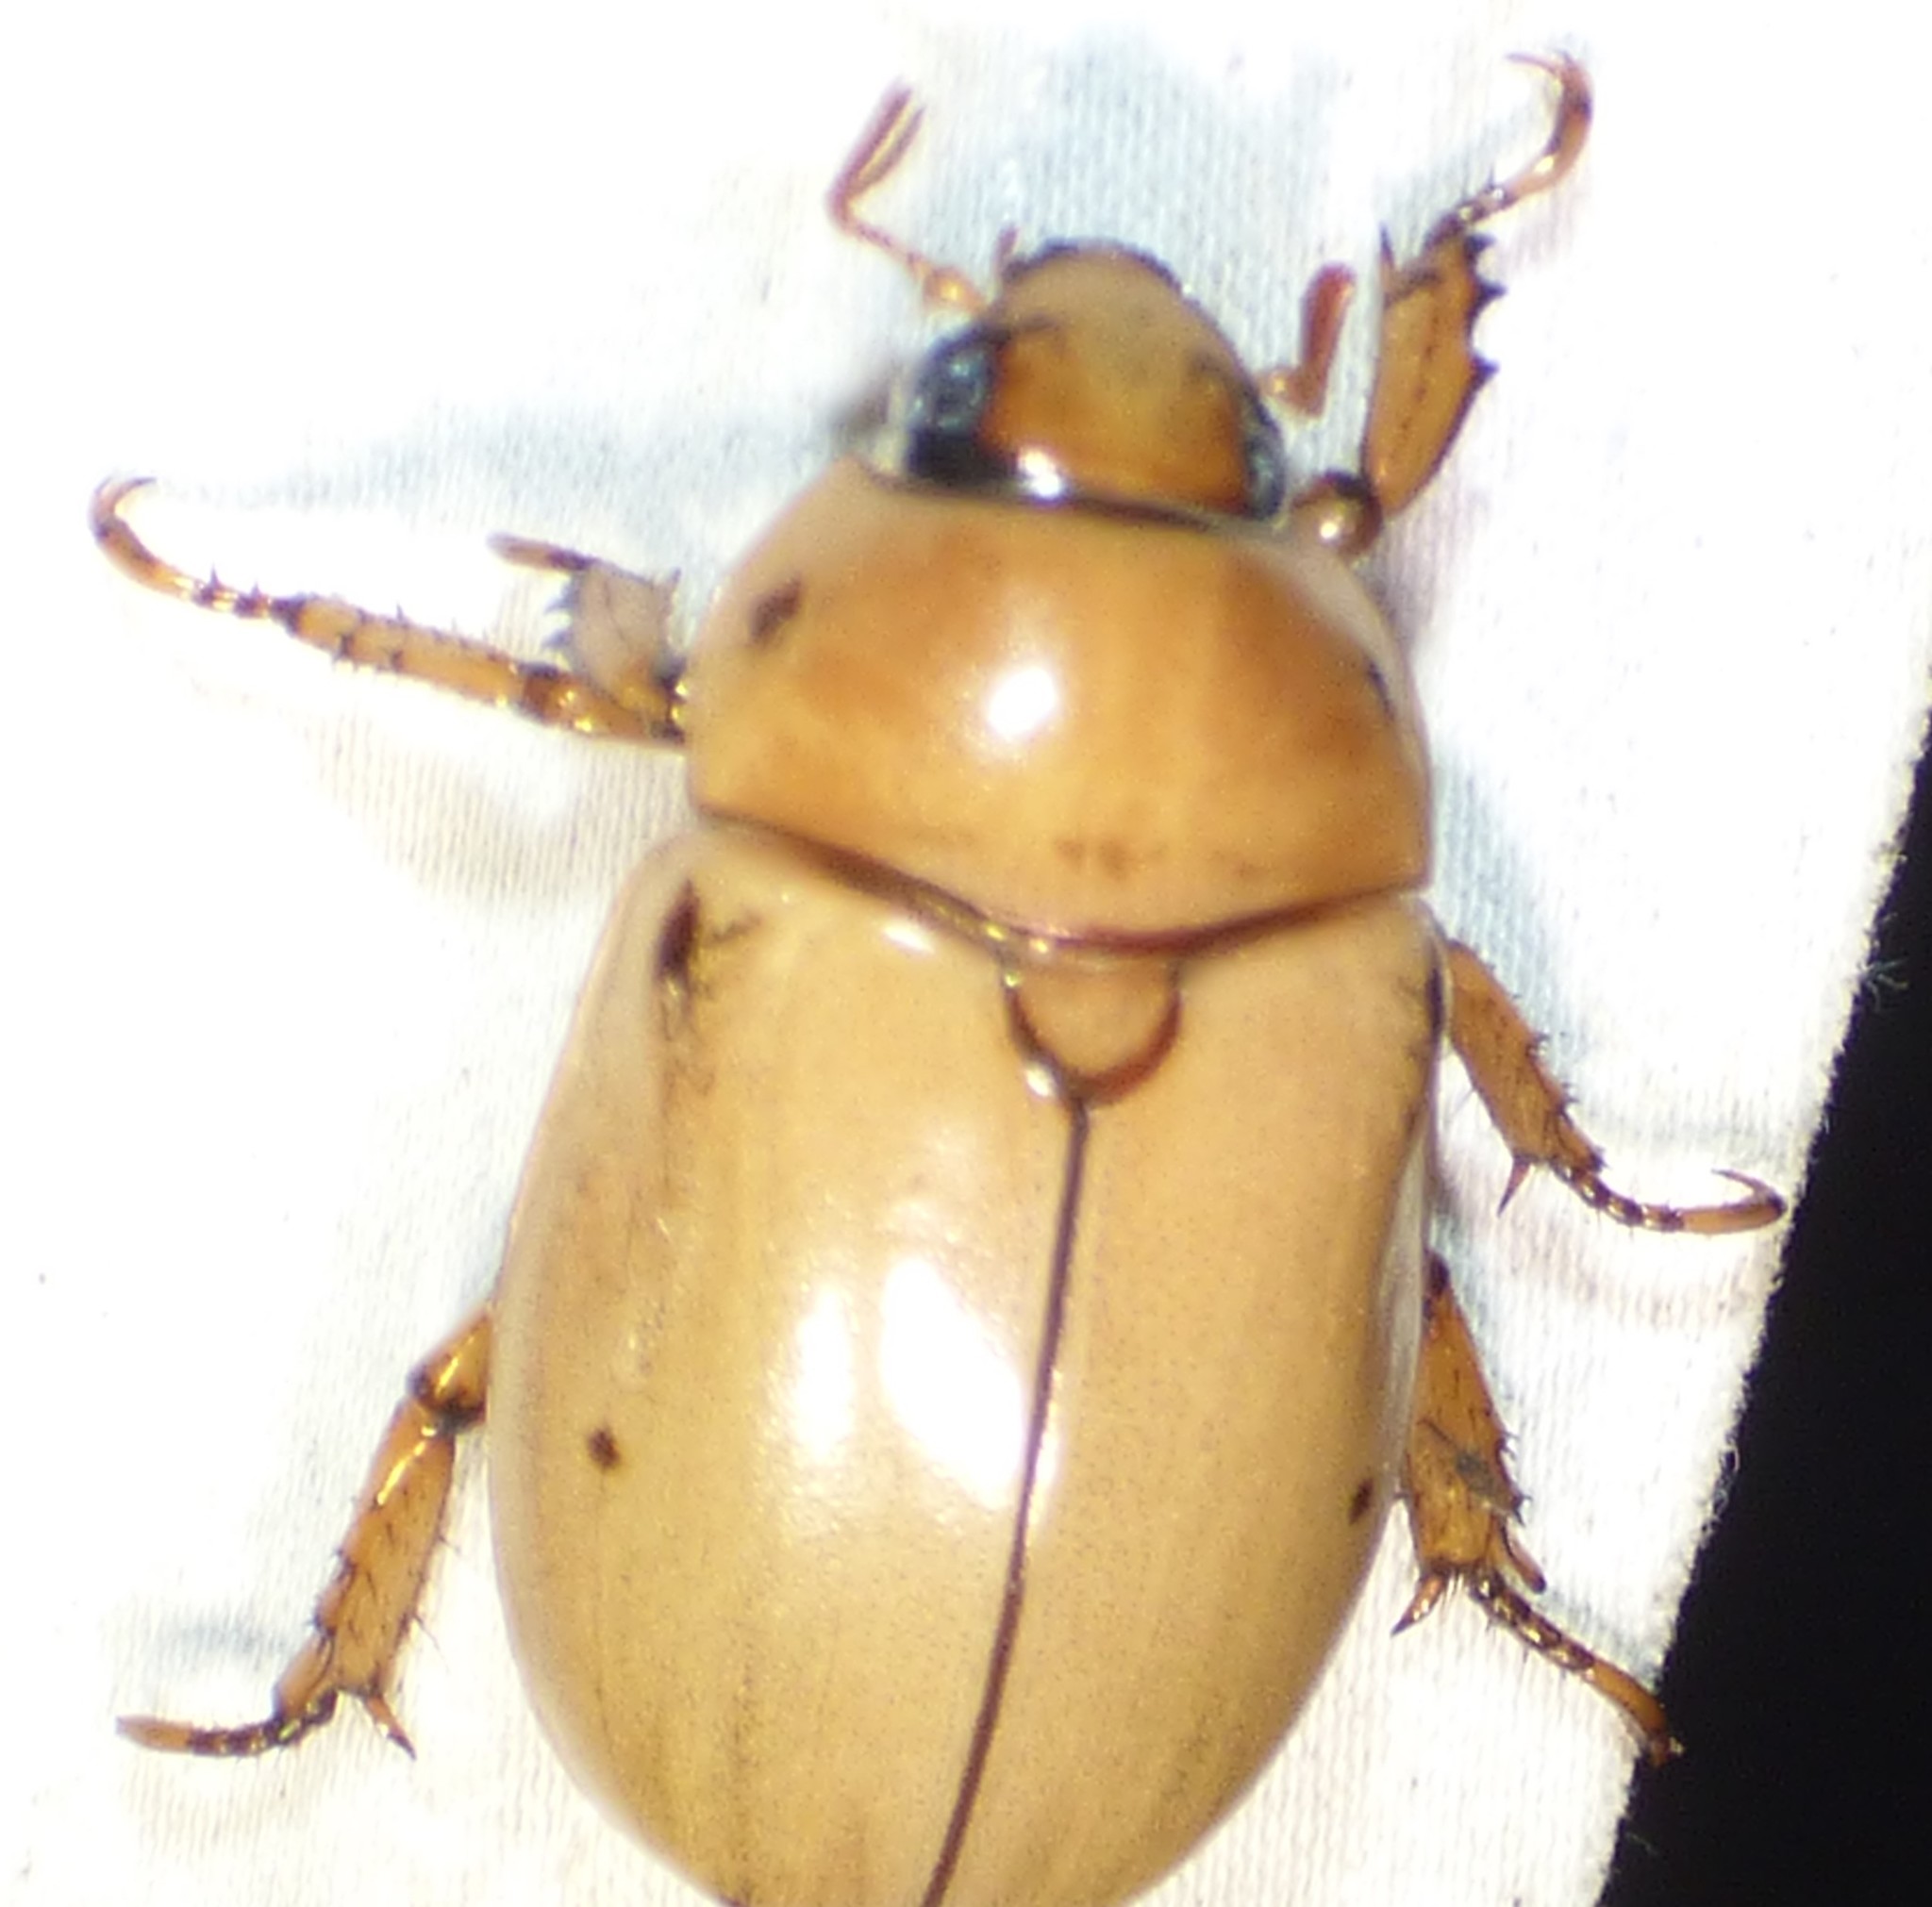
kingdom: Animalia
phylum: Arthropoda
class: Insecta
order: Coleoptera
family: Scarabaeidae
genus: Pelidnota
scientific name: Pelidnota punctata
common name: Grapevine beetle
